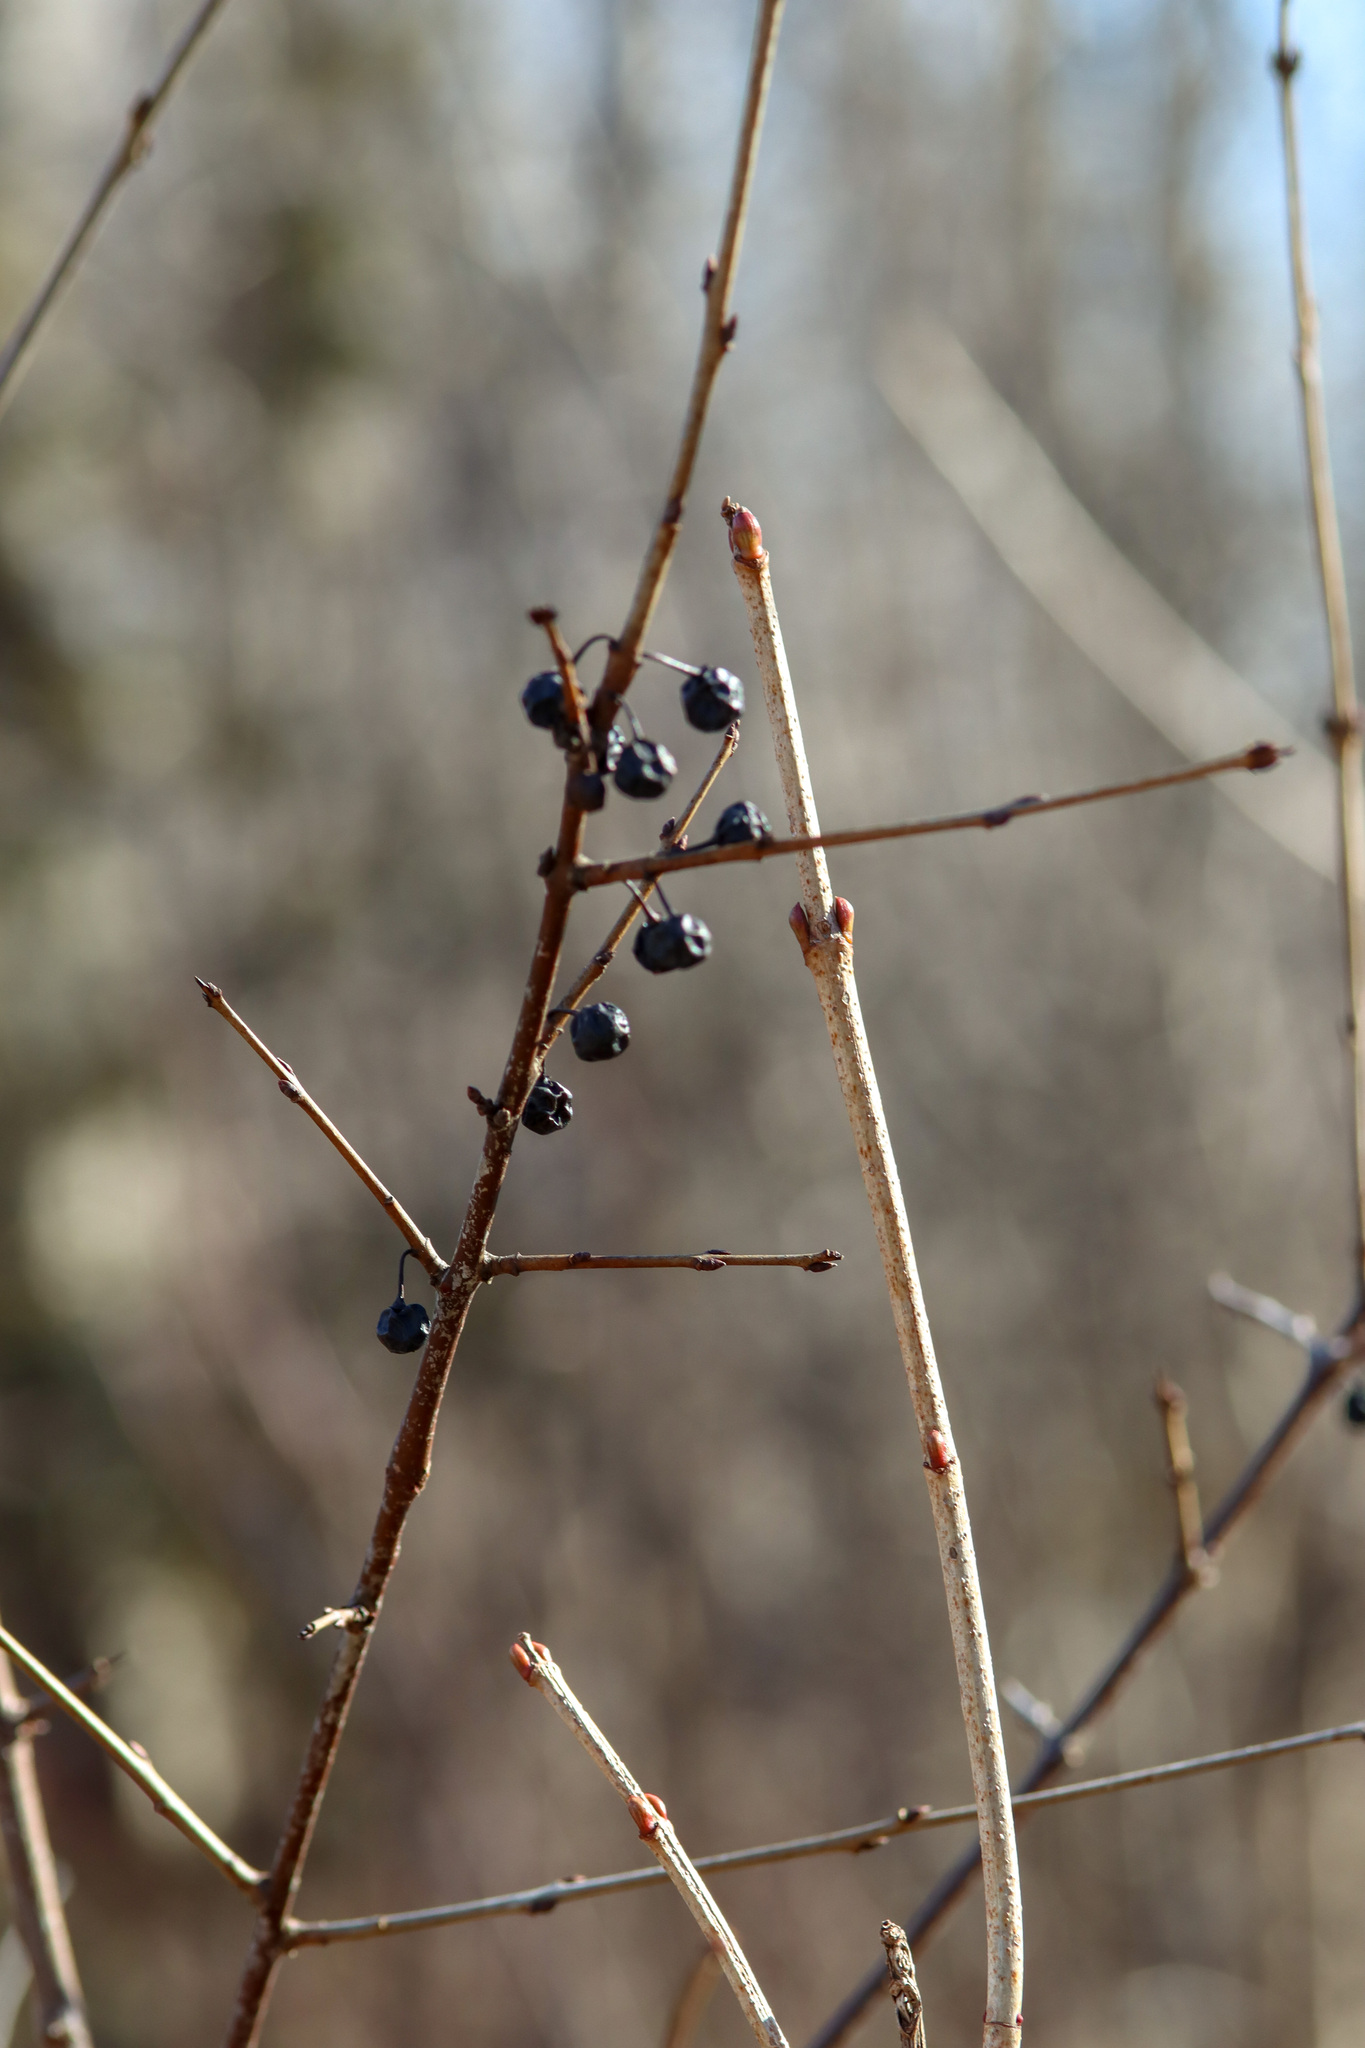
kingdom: Plantae
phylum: Tracheophyta
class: Magnoliopsida
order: Rosales
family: Rhamnaceae
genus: Rhamnus
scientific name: Rhamnus cathartica
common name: Common buckthorn
